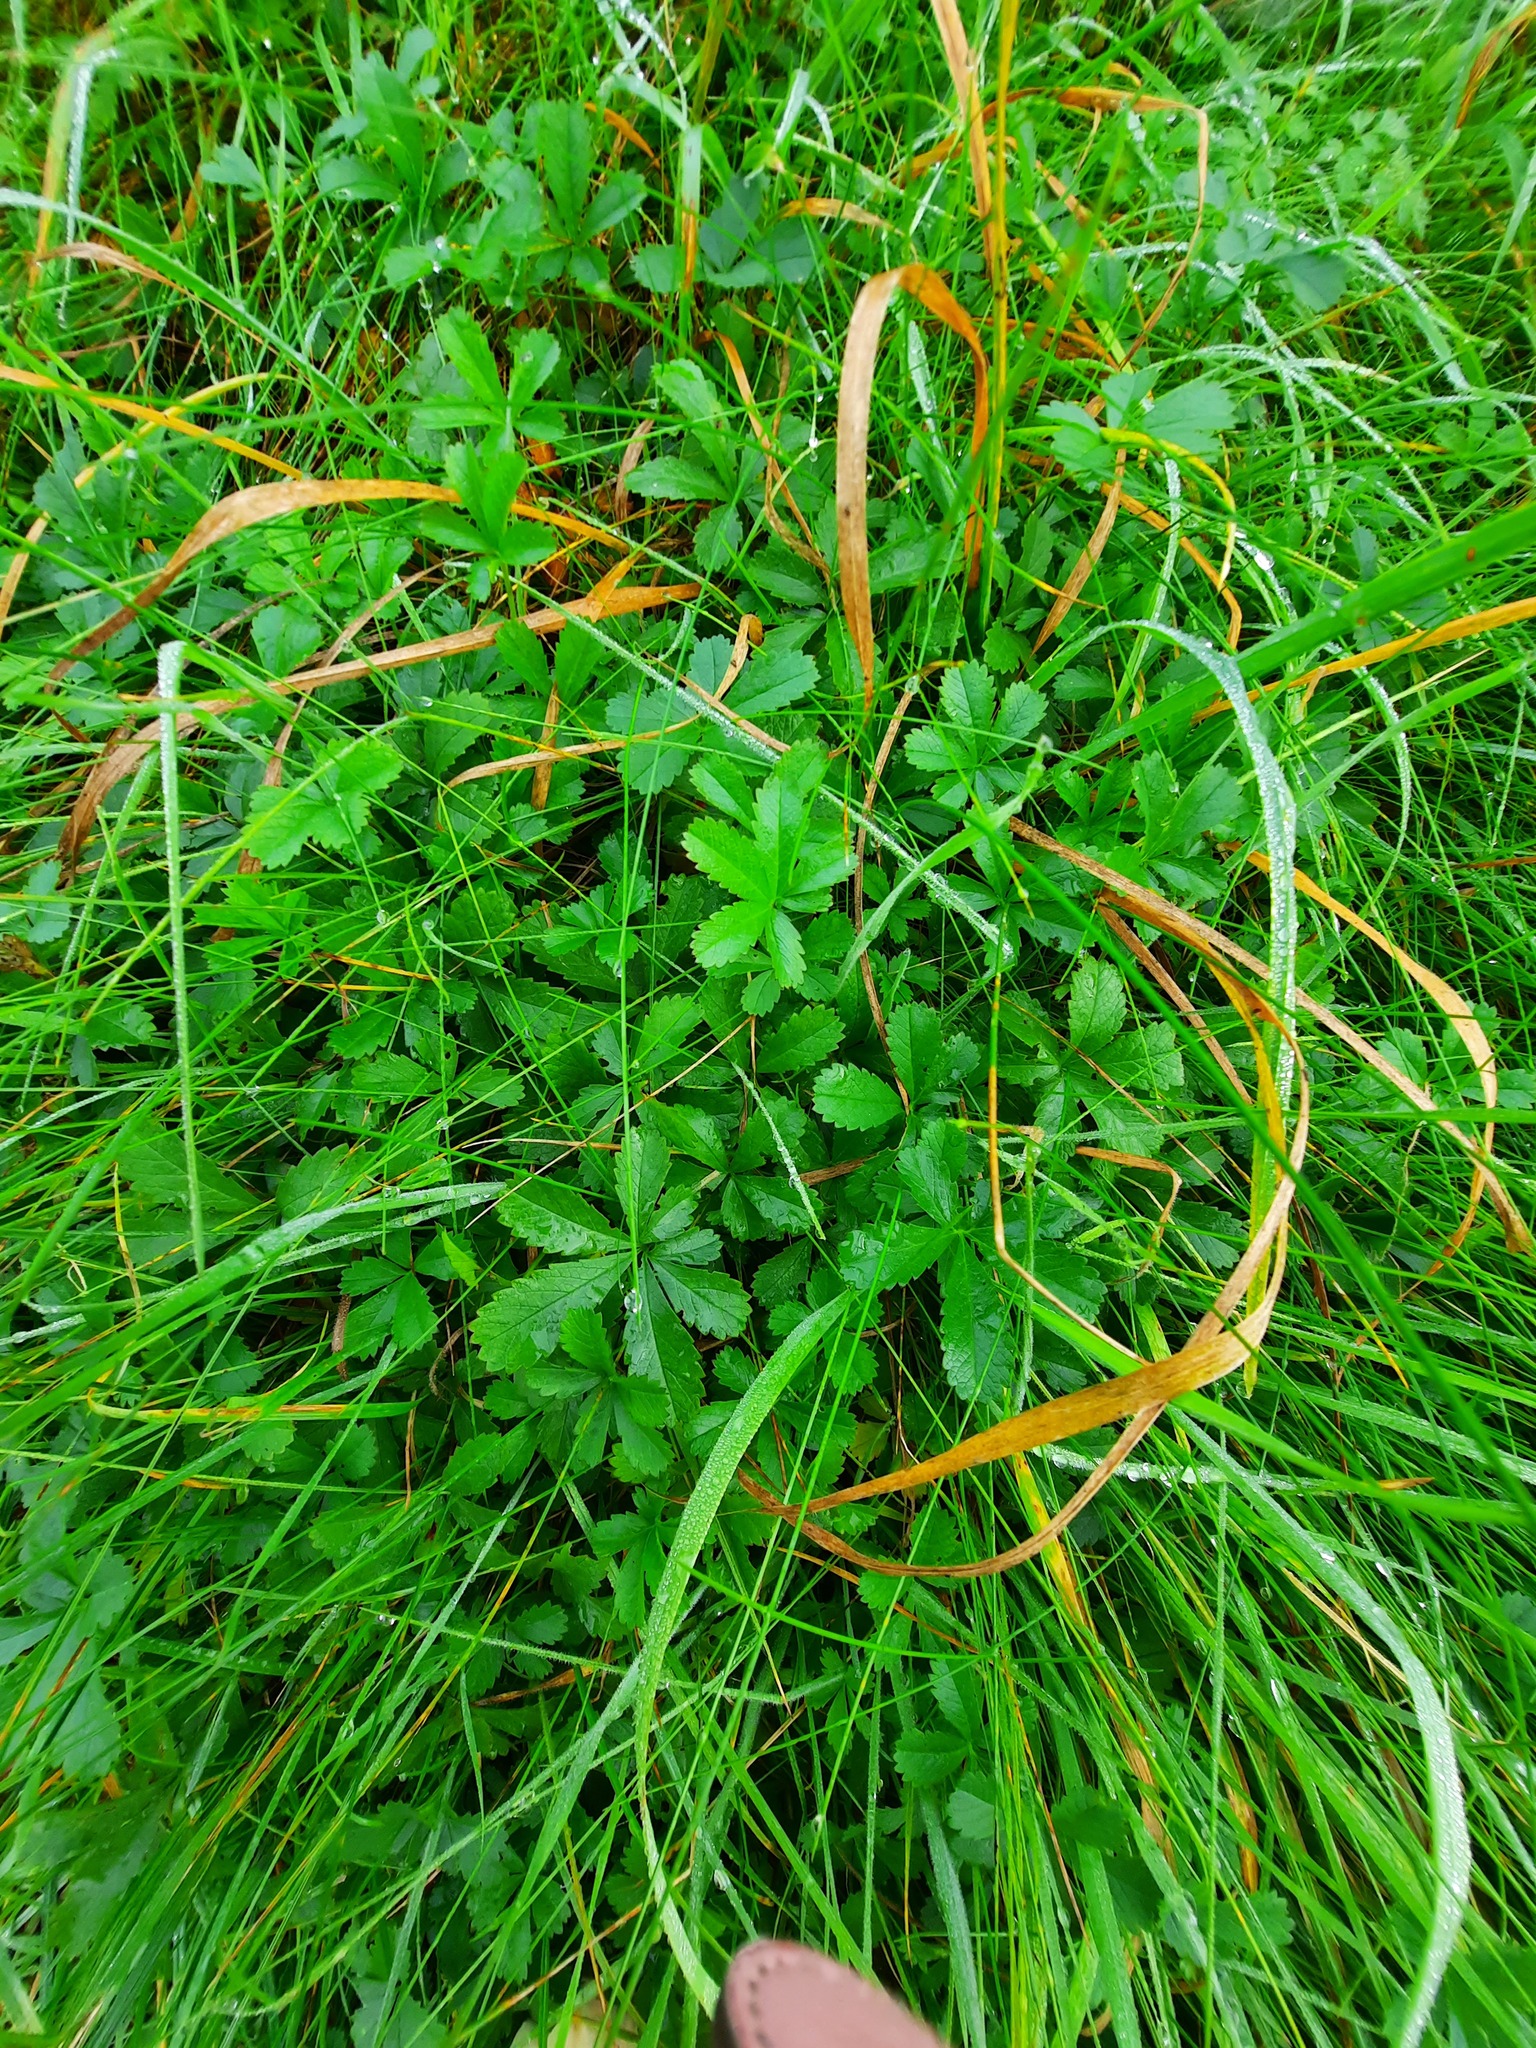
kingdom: Plantae
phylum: Tracheophyta
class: Magnoliopsida
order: Rosales
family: Rosaceae
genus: Potentilla
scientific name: Potentilla reptans
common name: Creeping cinquefoil
